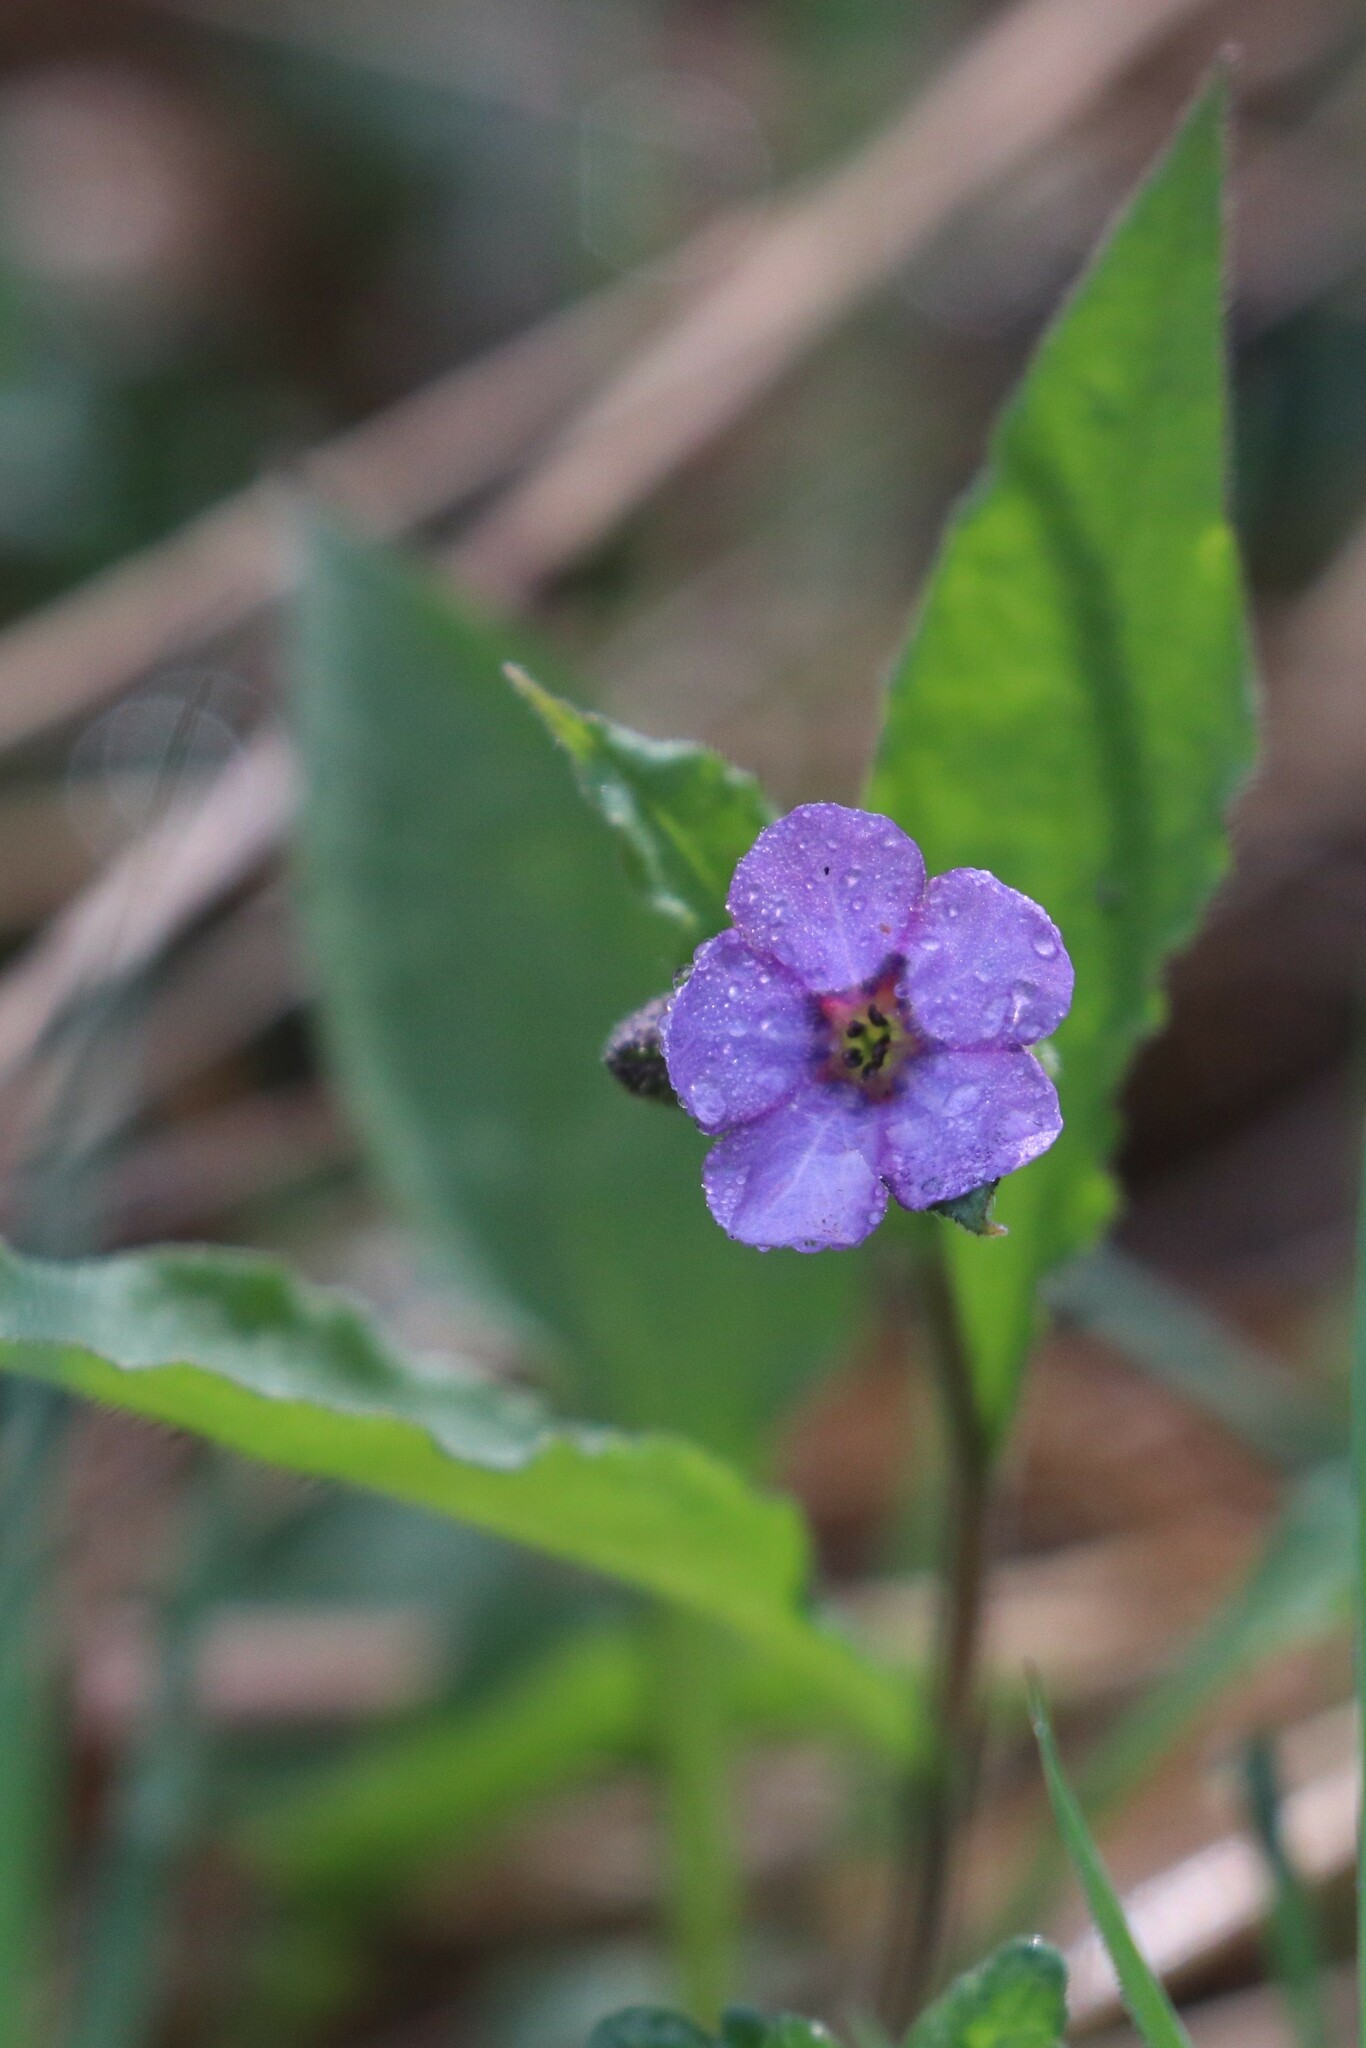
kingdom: Plantae
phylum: Tracheophyta
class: Magnoliopsida
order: Boraginales
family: Boraginaceae
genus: Pulmonaria
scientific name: Pulmonaria obscura
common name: Suffolk lungwort
